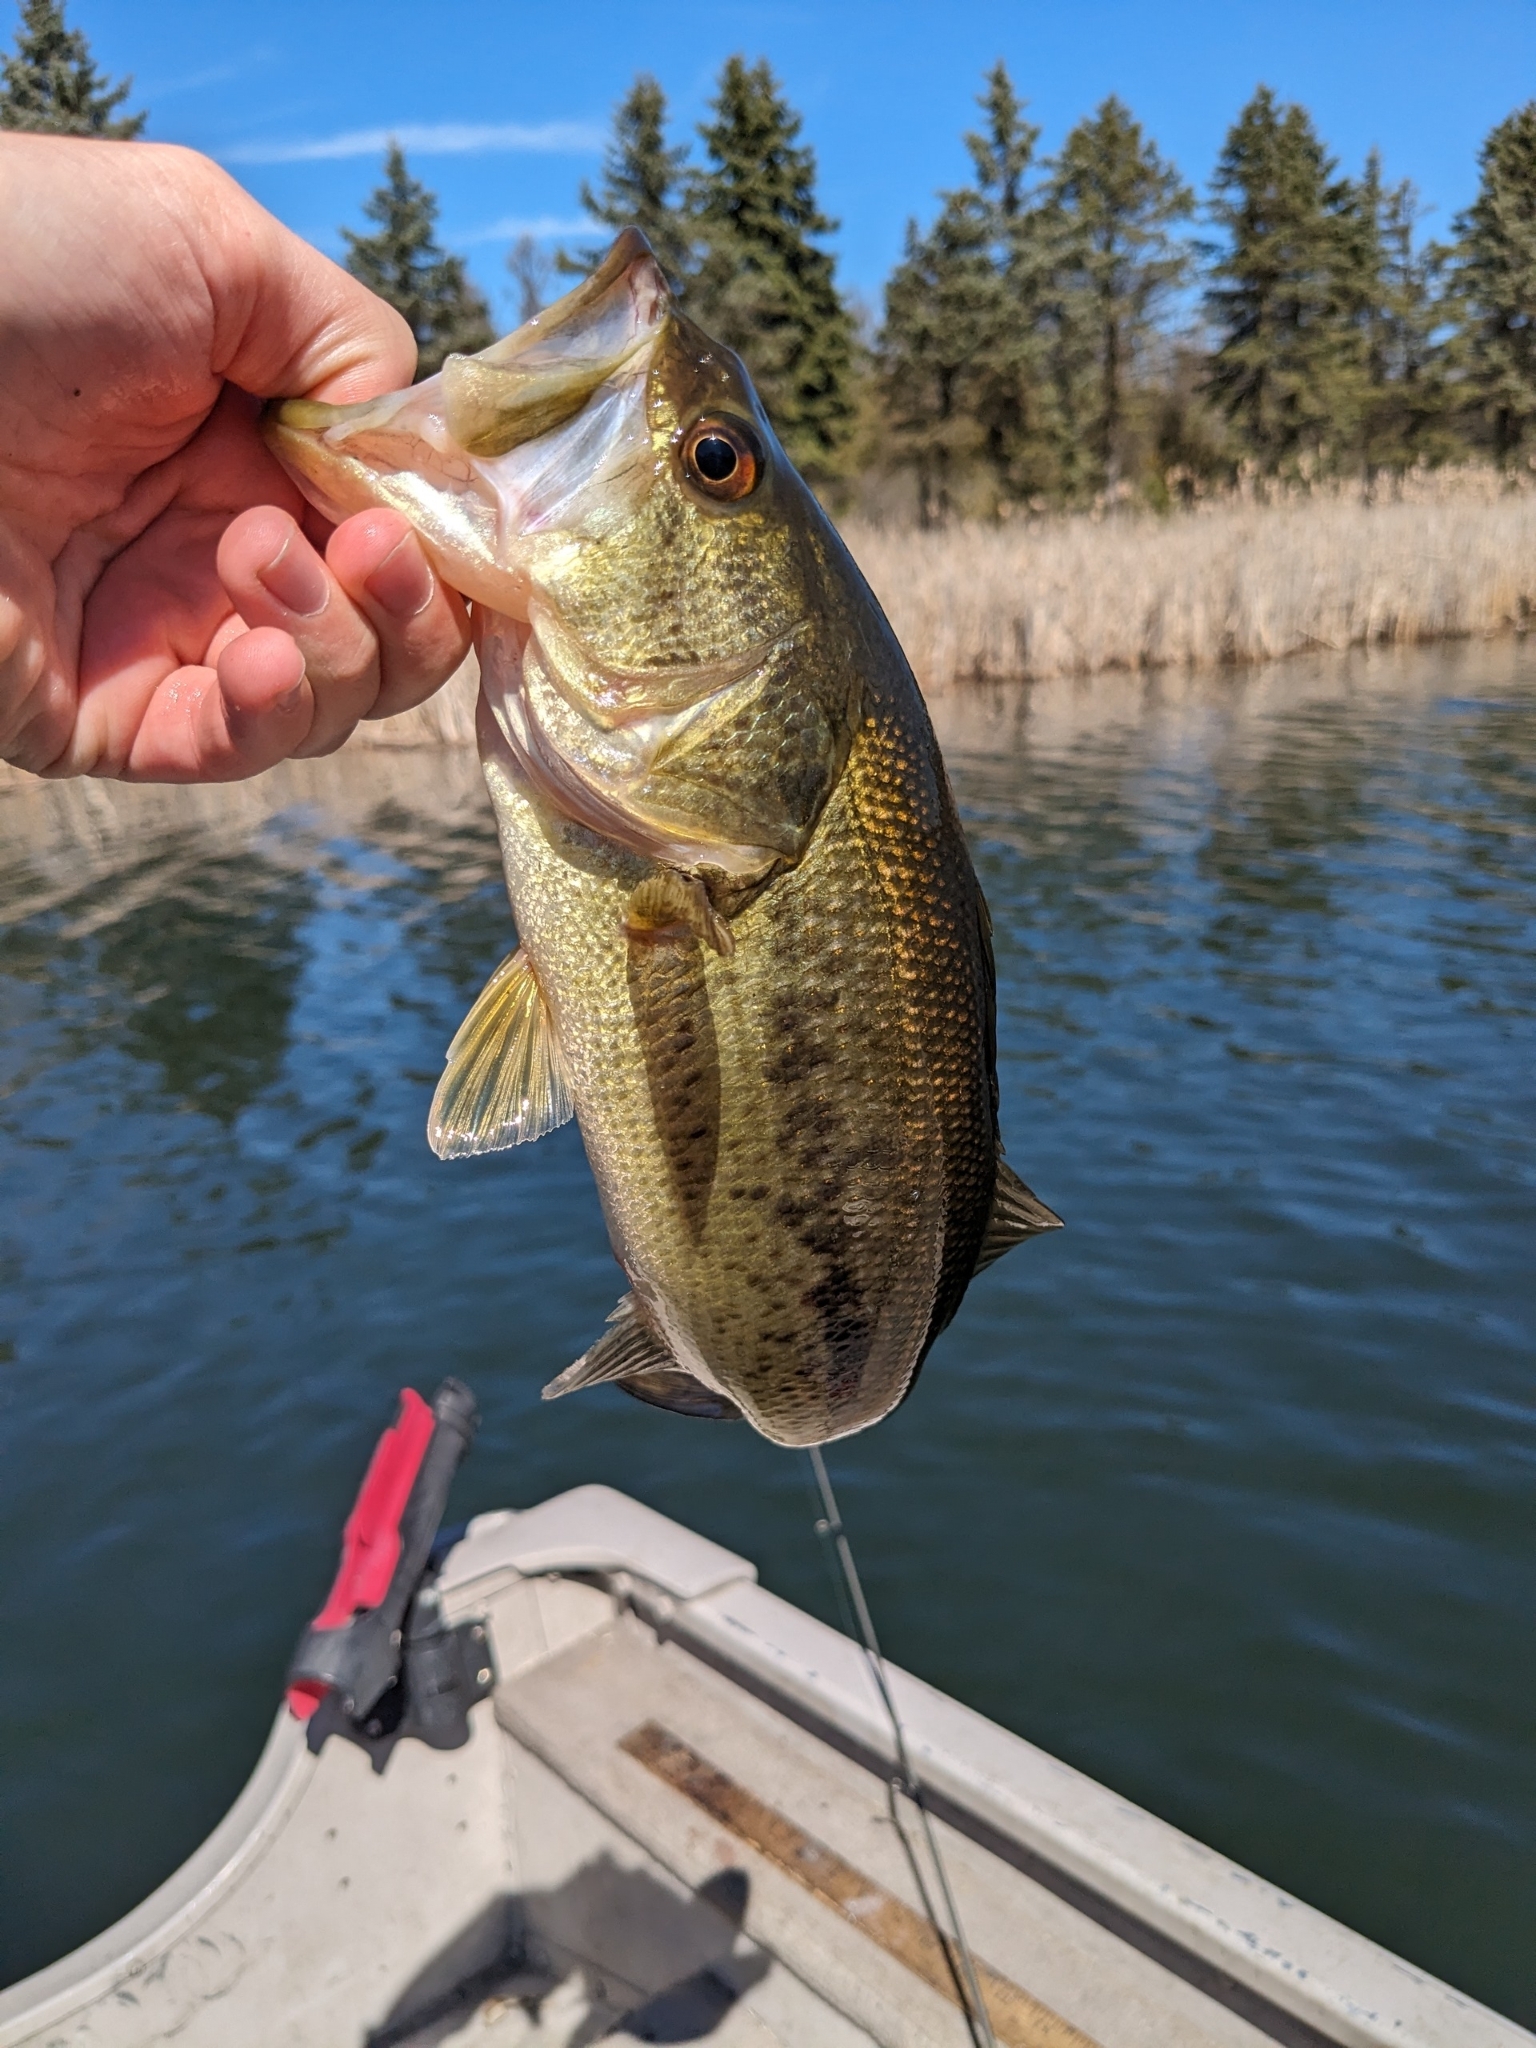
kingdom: Animalia
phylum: Chordata
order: Perciformes
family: Centrarchidae
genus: Micropterus
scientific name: Micropterus
